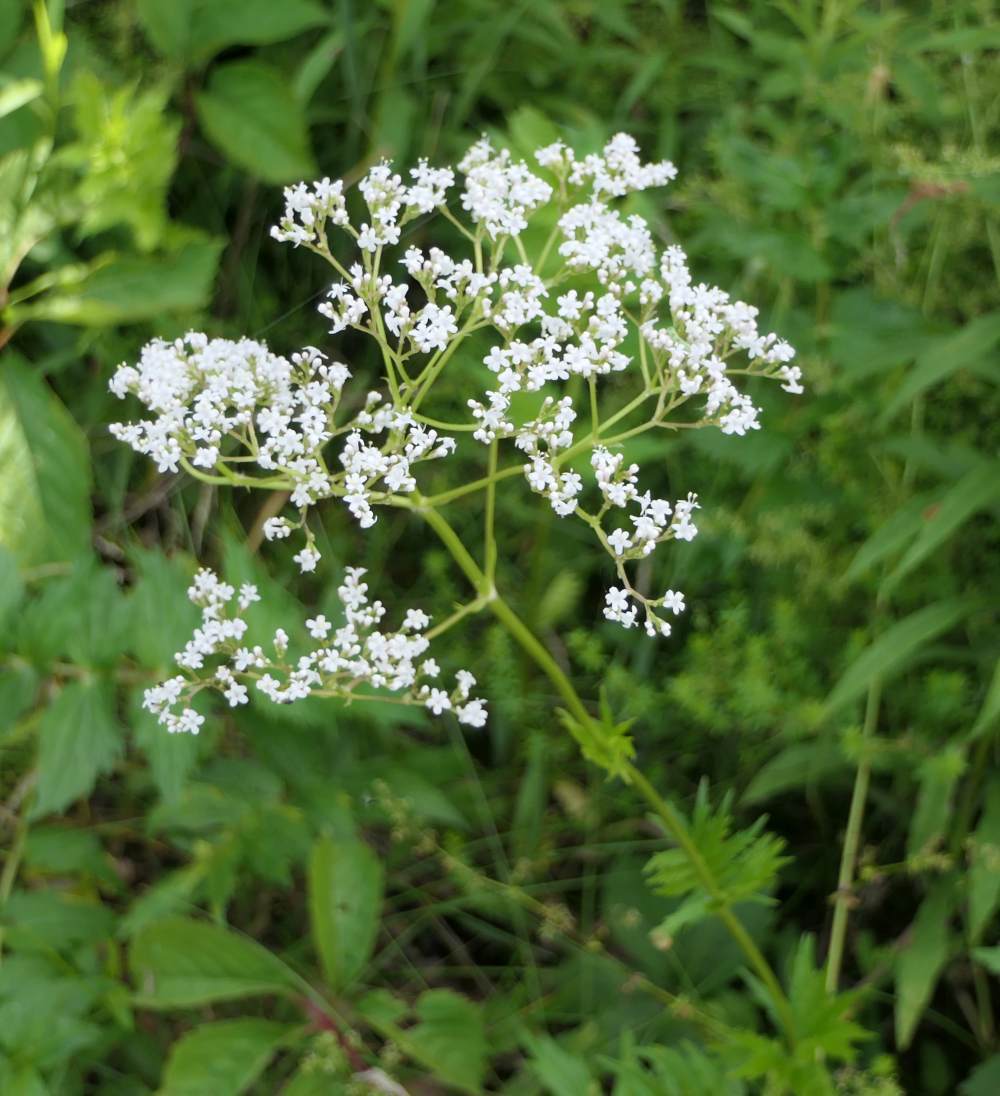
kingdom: Plantae
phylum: Tracheophyta
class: Magnoliopsida
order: Dipsacales
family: Caprifoliaceae
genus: Valeriana
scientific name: Valeriana officinalis
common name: Common valerian
